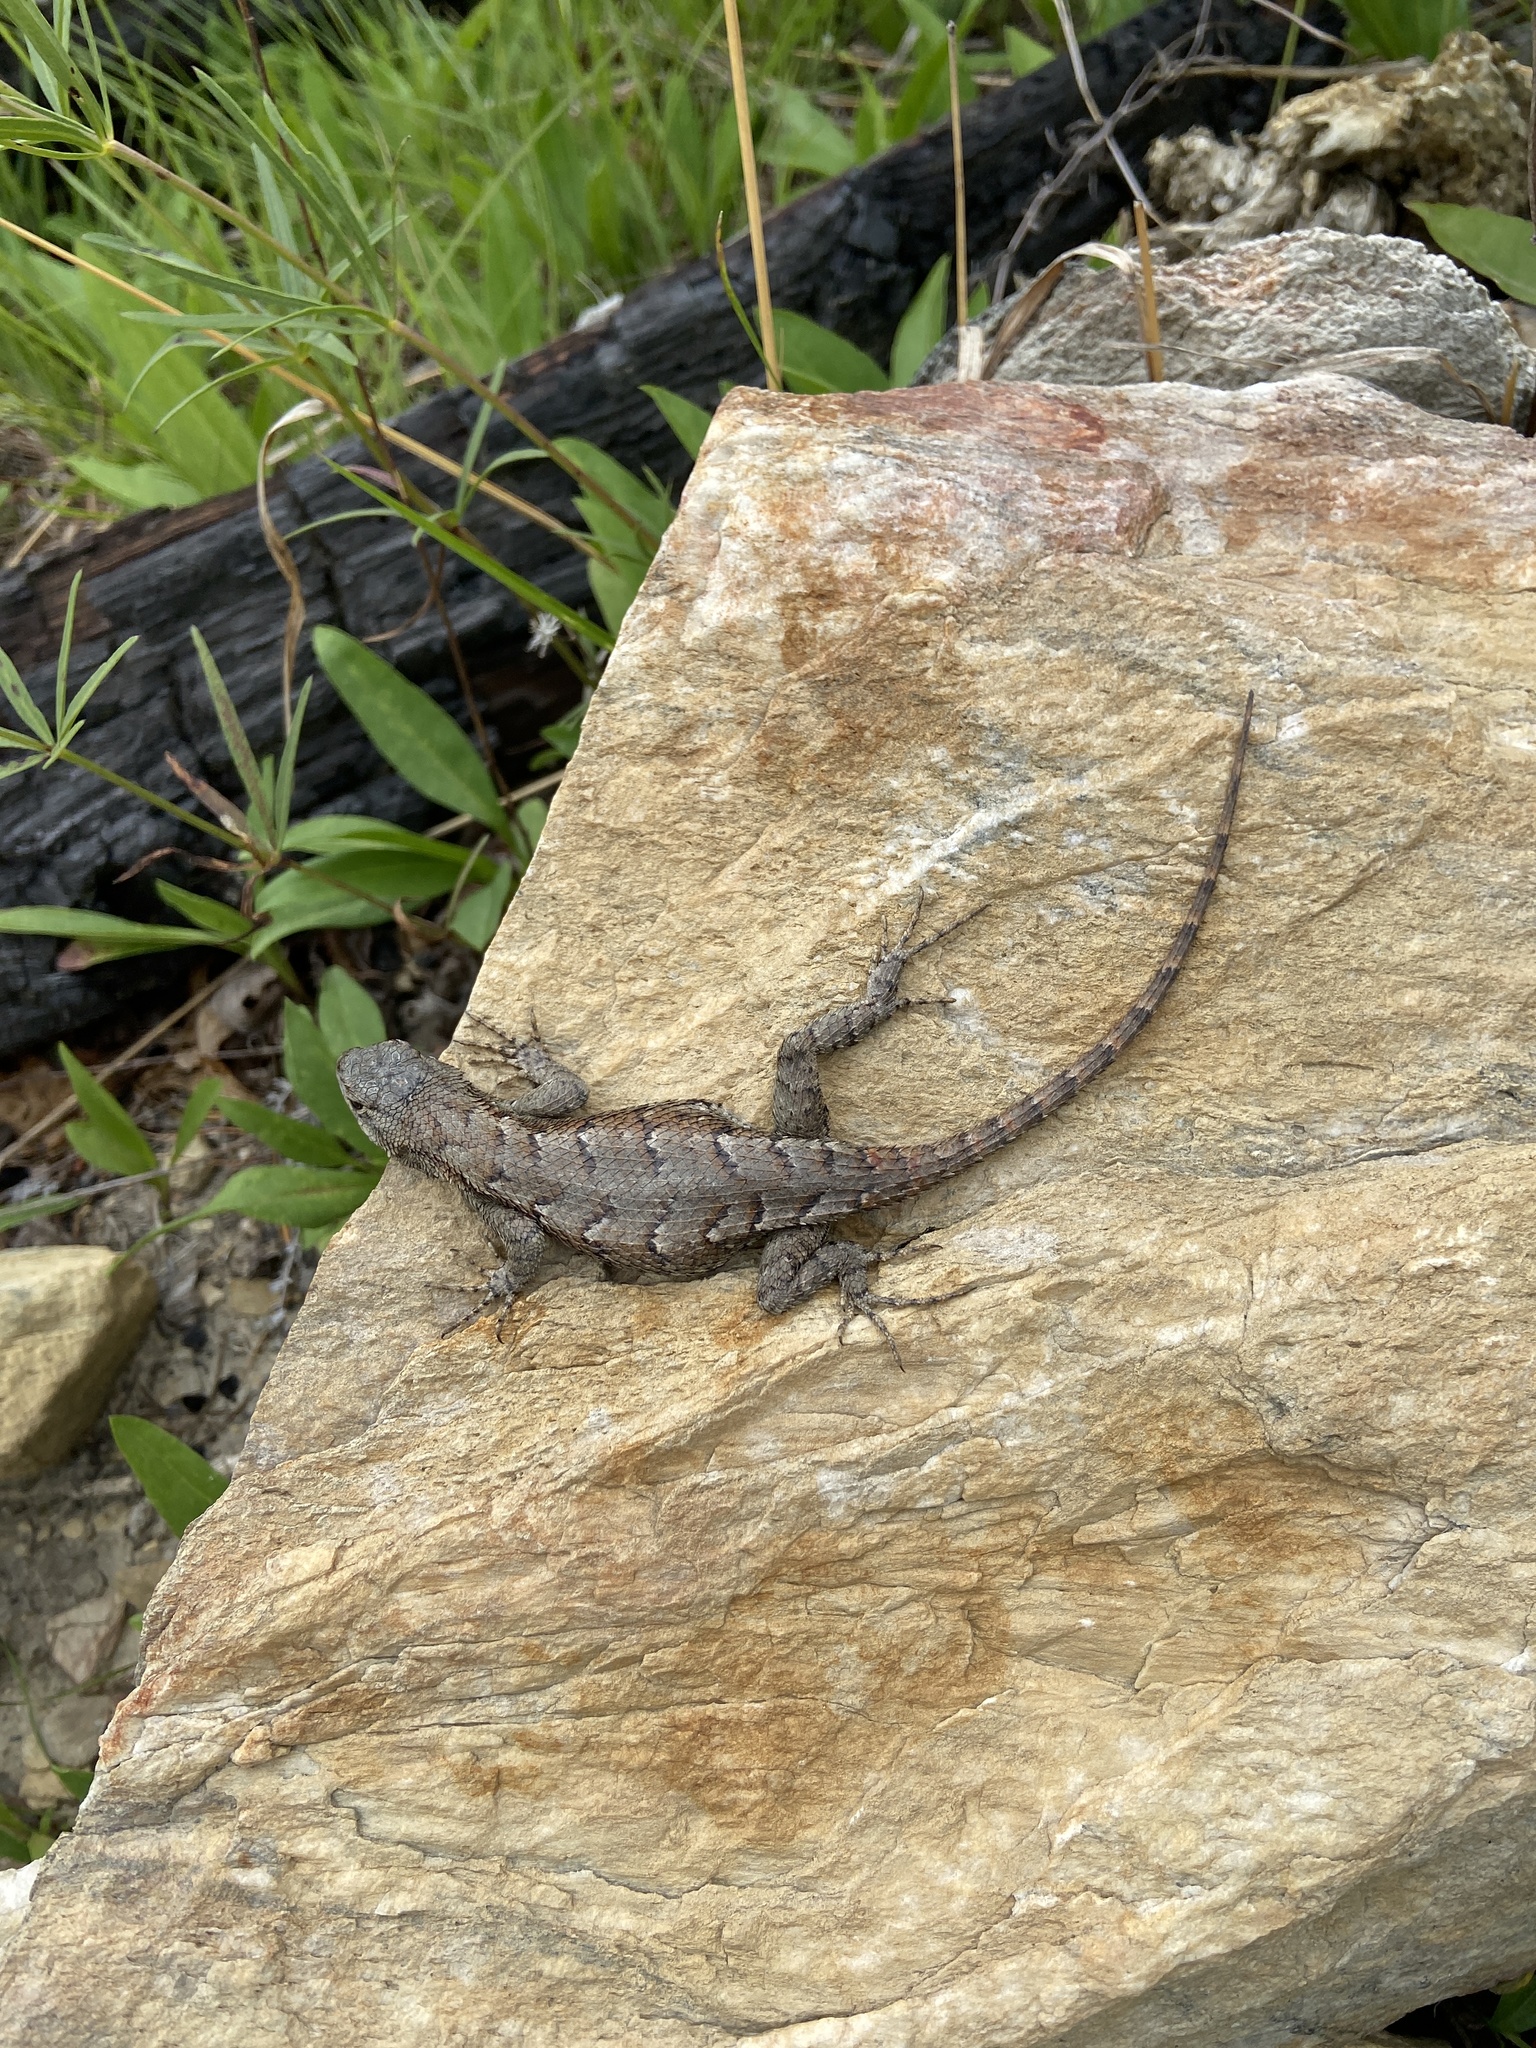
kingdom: Animalia
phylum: Chordata
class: Squamata
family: Phrynosomatidae
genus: Sceloporus
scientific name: Sceloporus undulatus
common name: Eastern fence lizard
